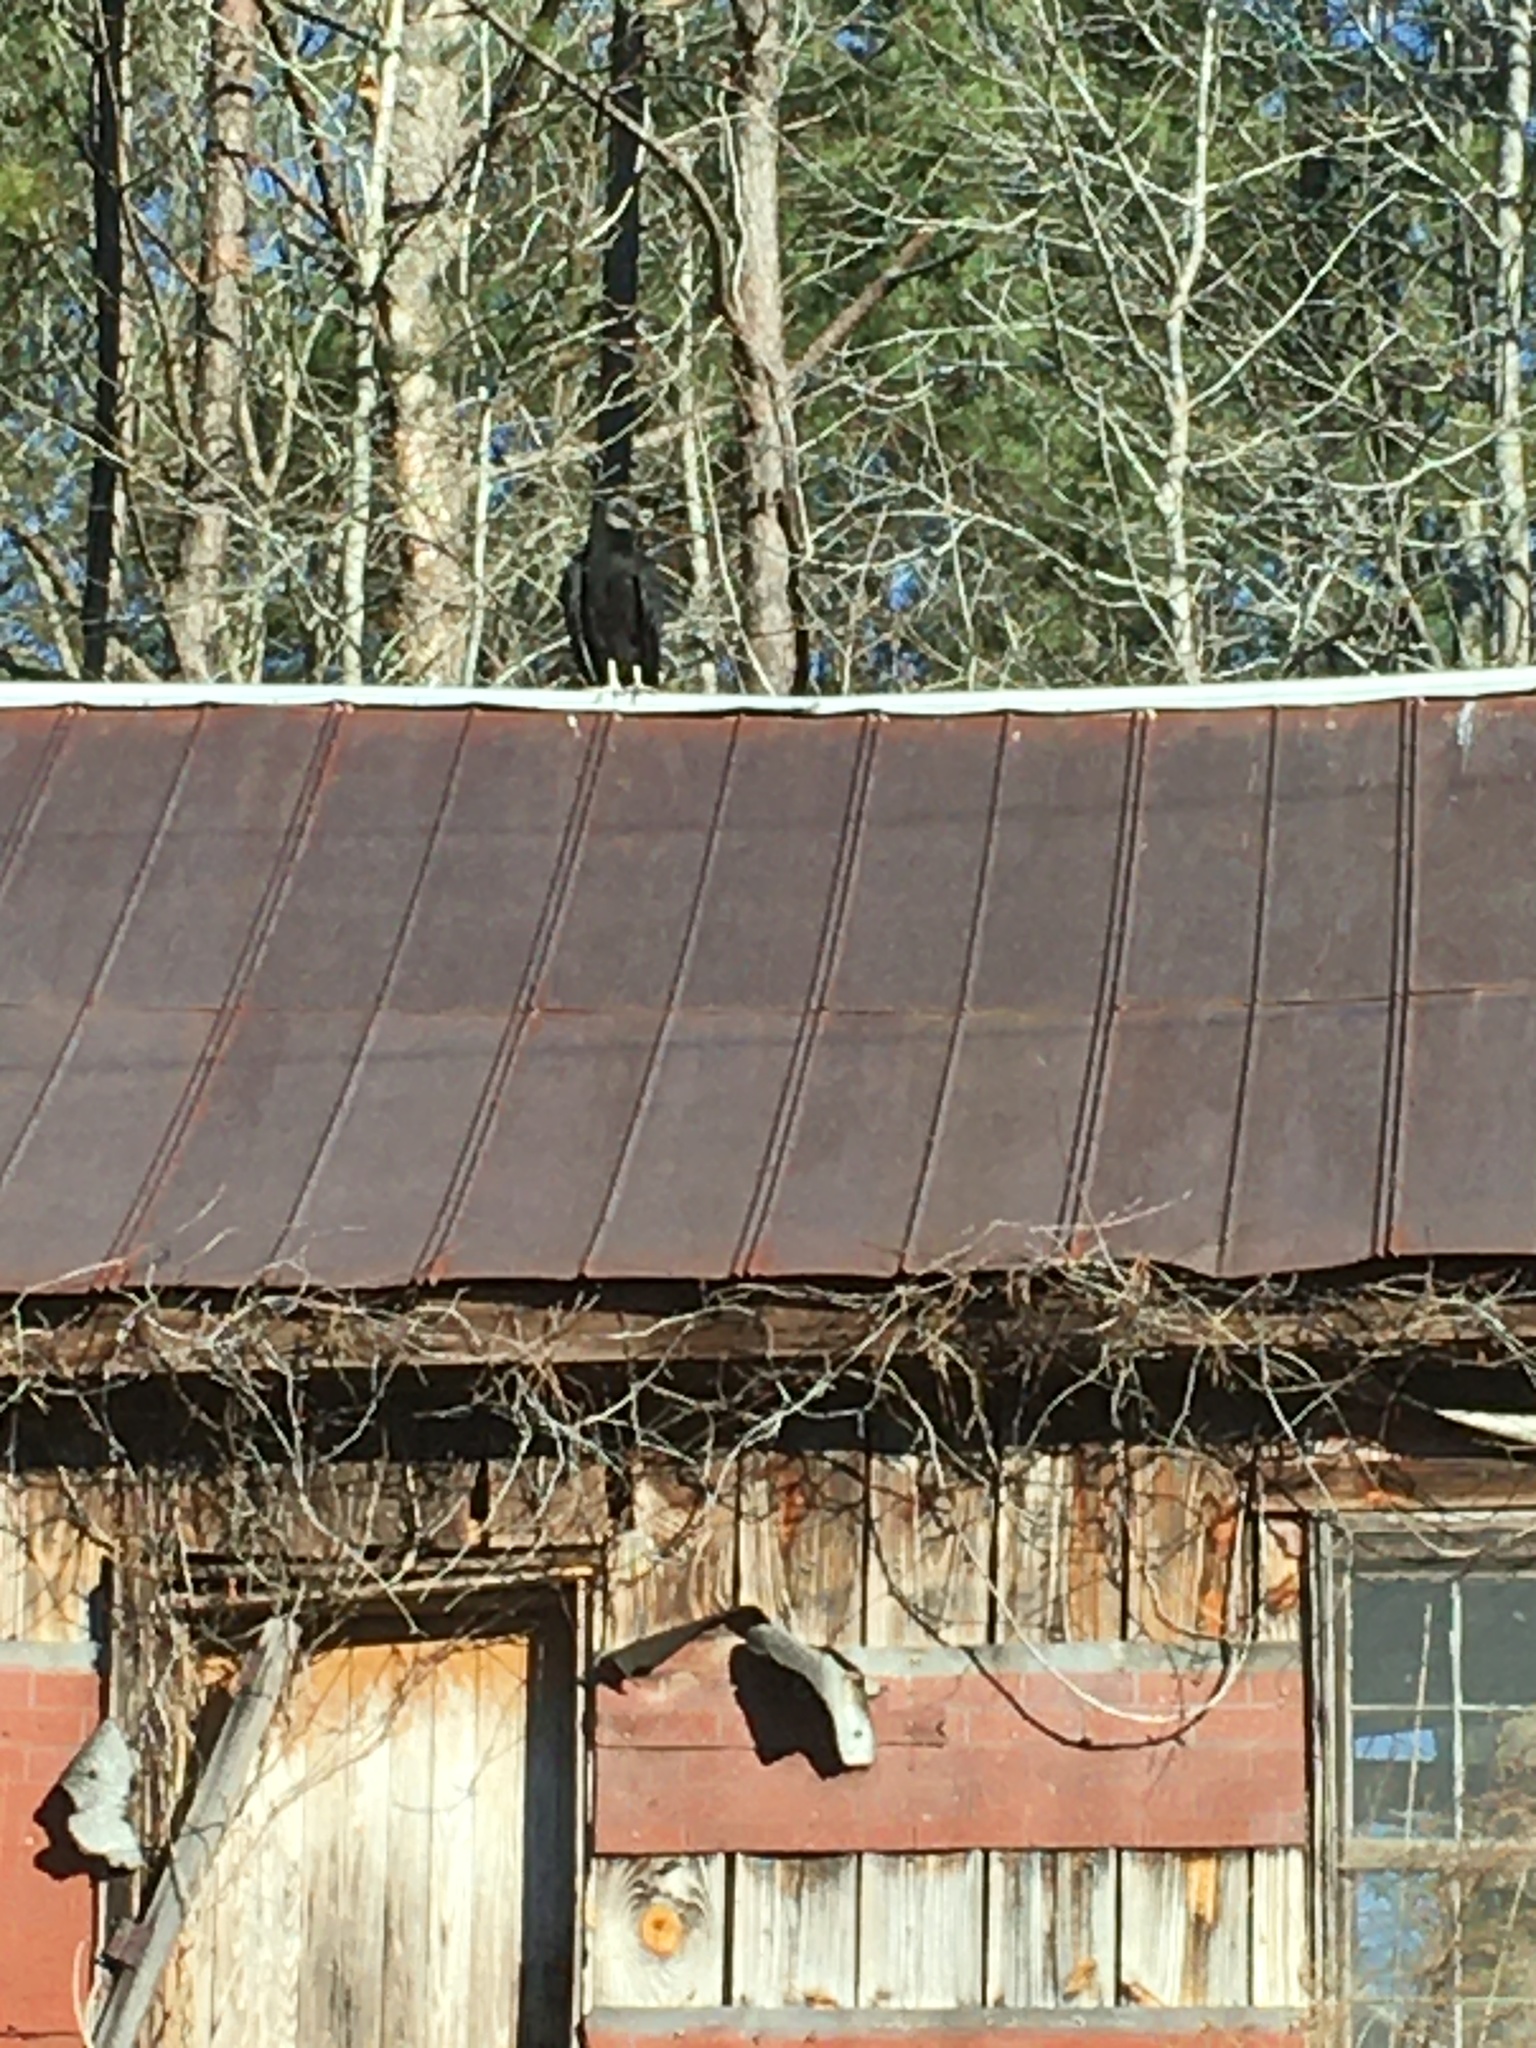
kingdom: Animalia
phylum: Chordata
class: Aves
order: Accipitriformes
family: Cathartidae
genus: Coragyps
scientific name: Coragyps atratus
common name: Black vulture
